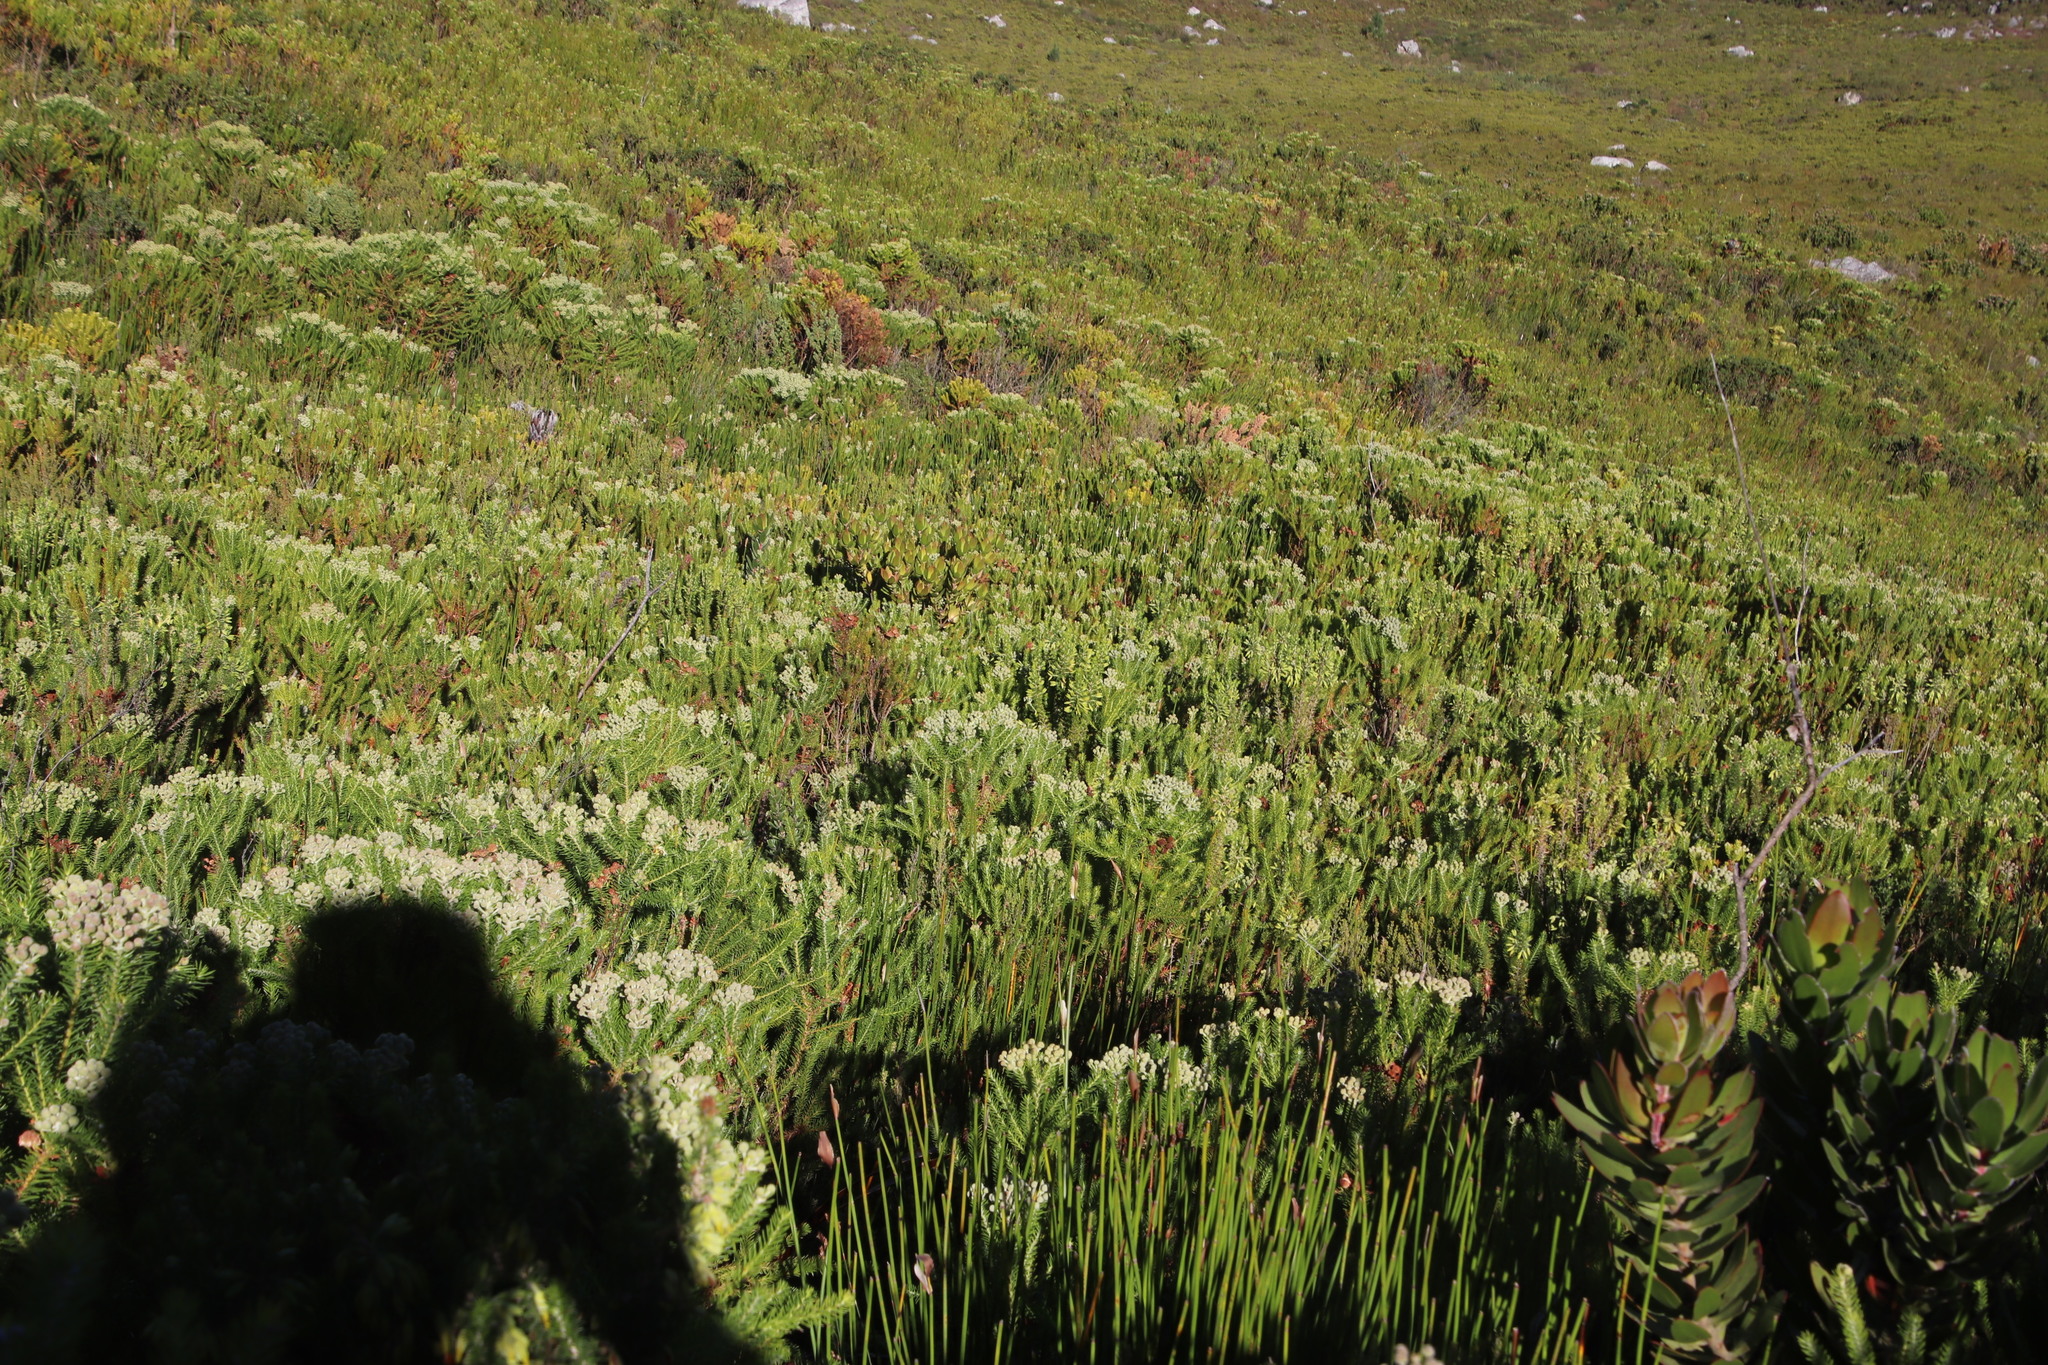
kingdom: Plantae
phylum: Tracheophyta
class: Magnoliopsida
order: Bruniales
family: Bruniaceae
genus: Berzelia
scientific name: Berzelia intermedia
